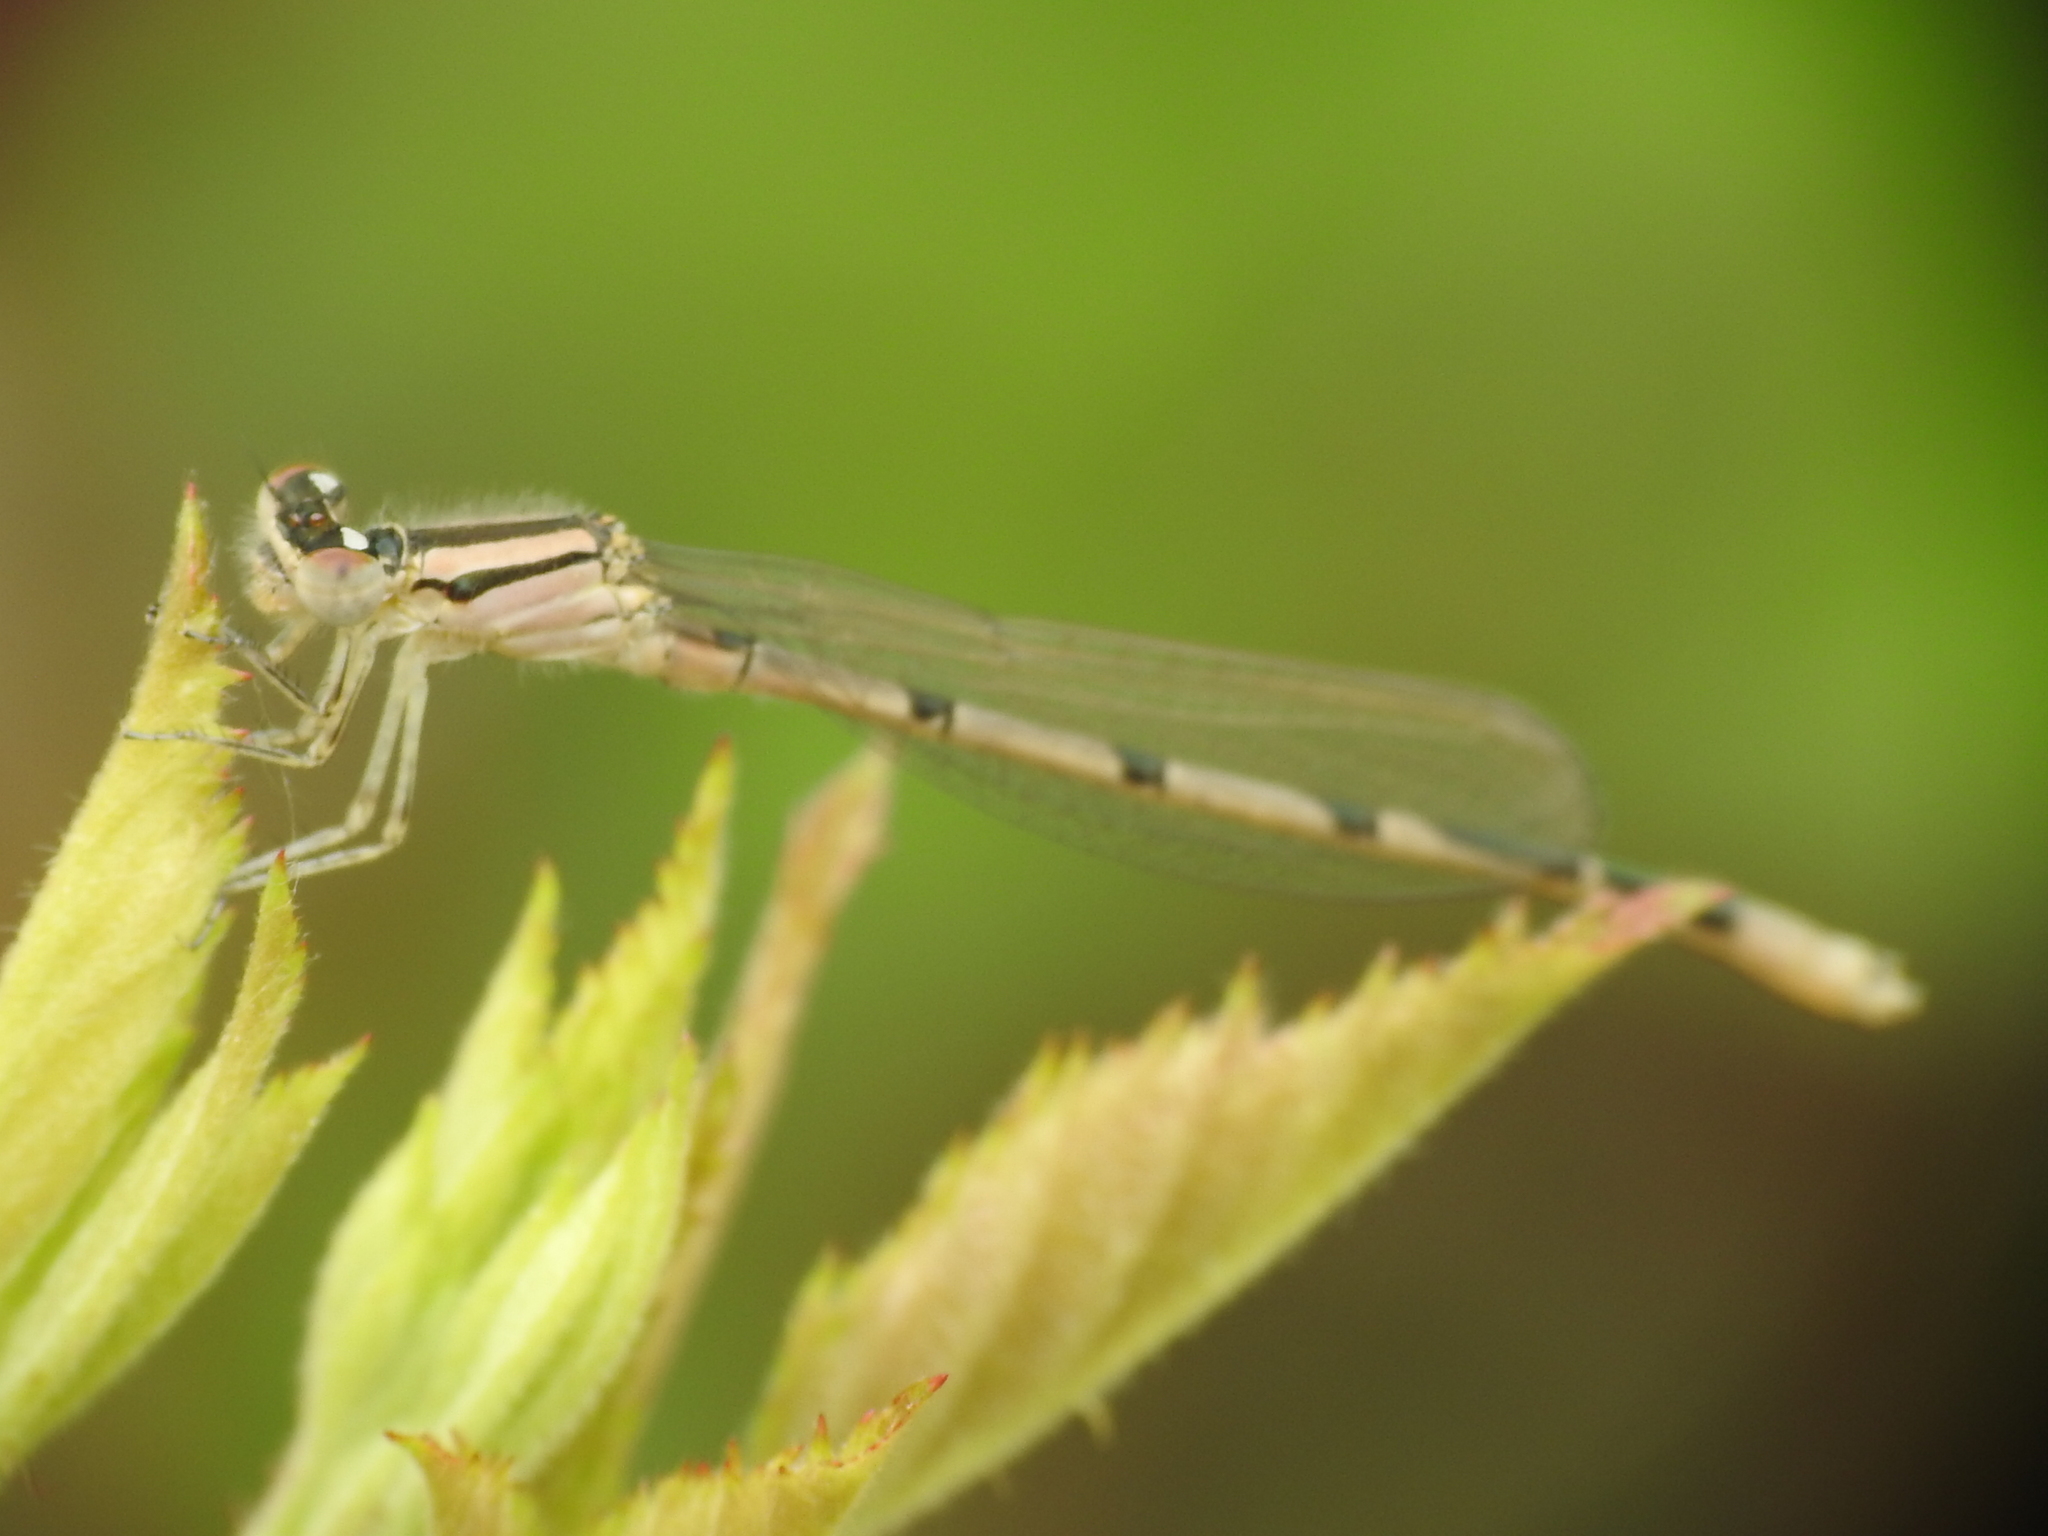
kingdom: Animalia
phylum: Arthropoda
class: Insecta
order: Odonata
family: Coenagrionidae
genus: Enallagma
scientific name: Enallagma civile
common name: Damselfly
